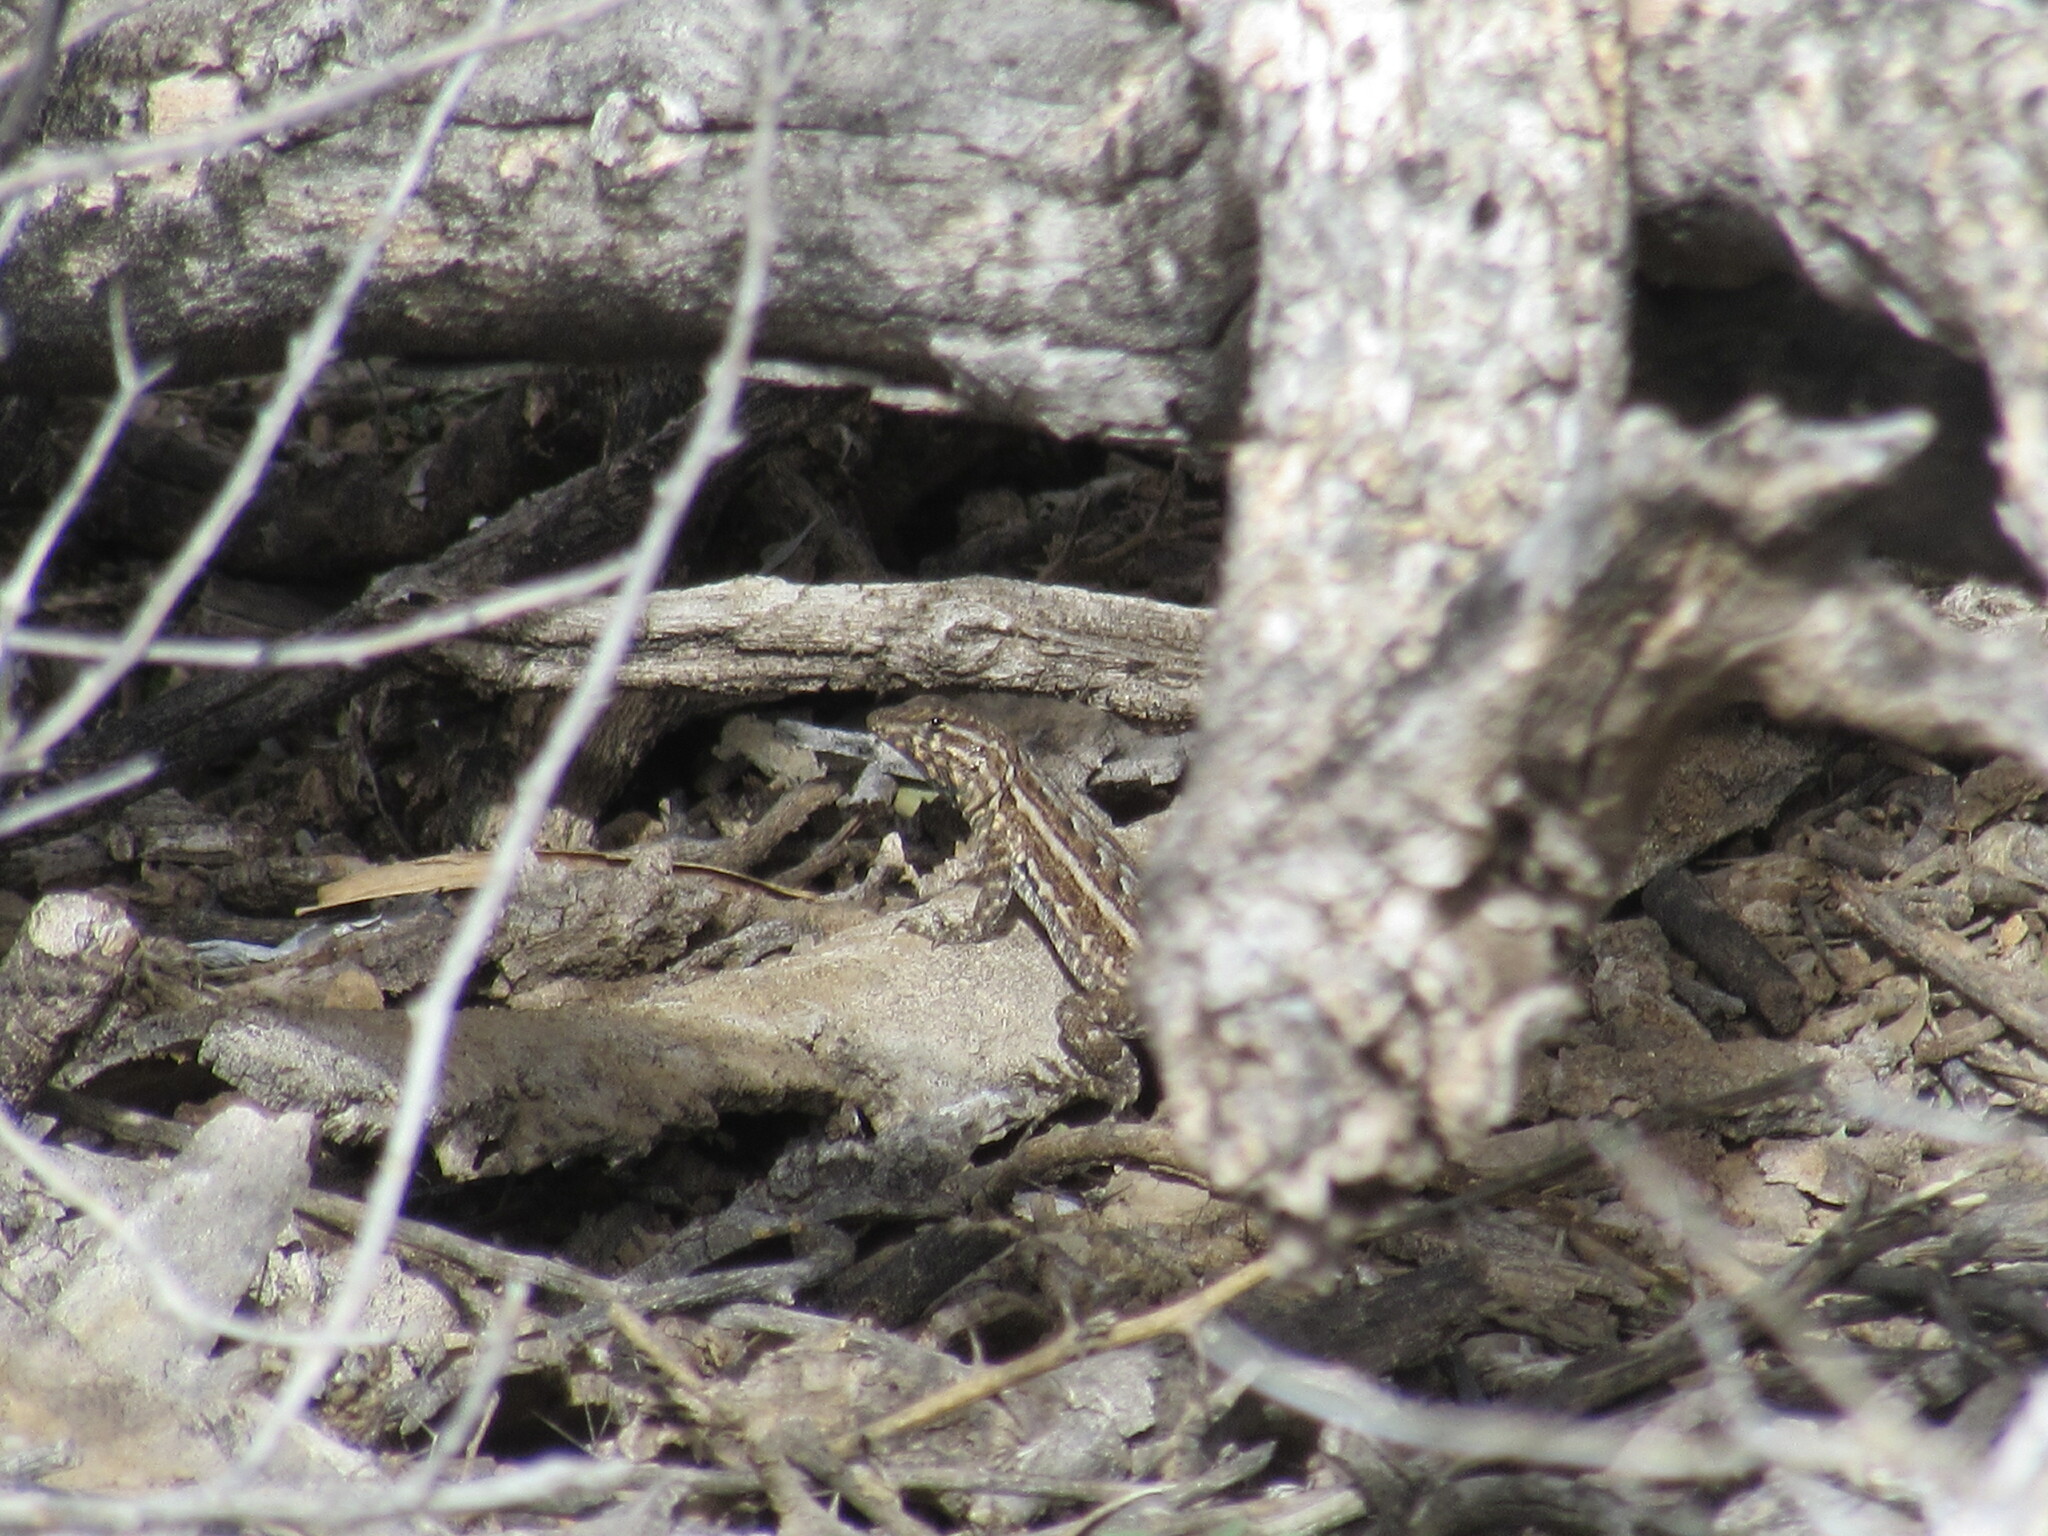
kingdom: Animalia
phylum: Chordata
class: Squamata
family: Phrynosomatidae
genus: Uta
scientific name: Uta stansburiana
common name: Side-blotched lizard
